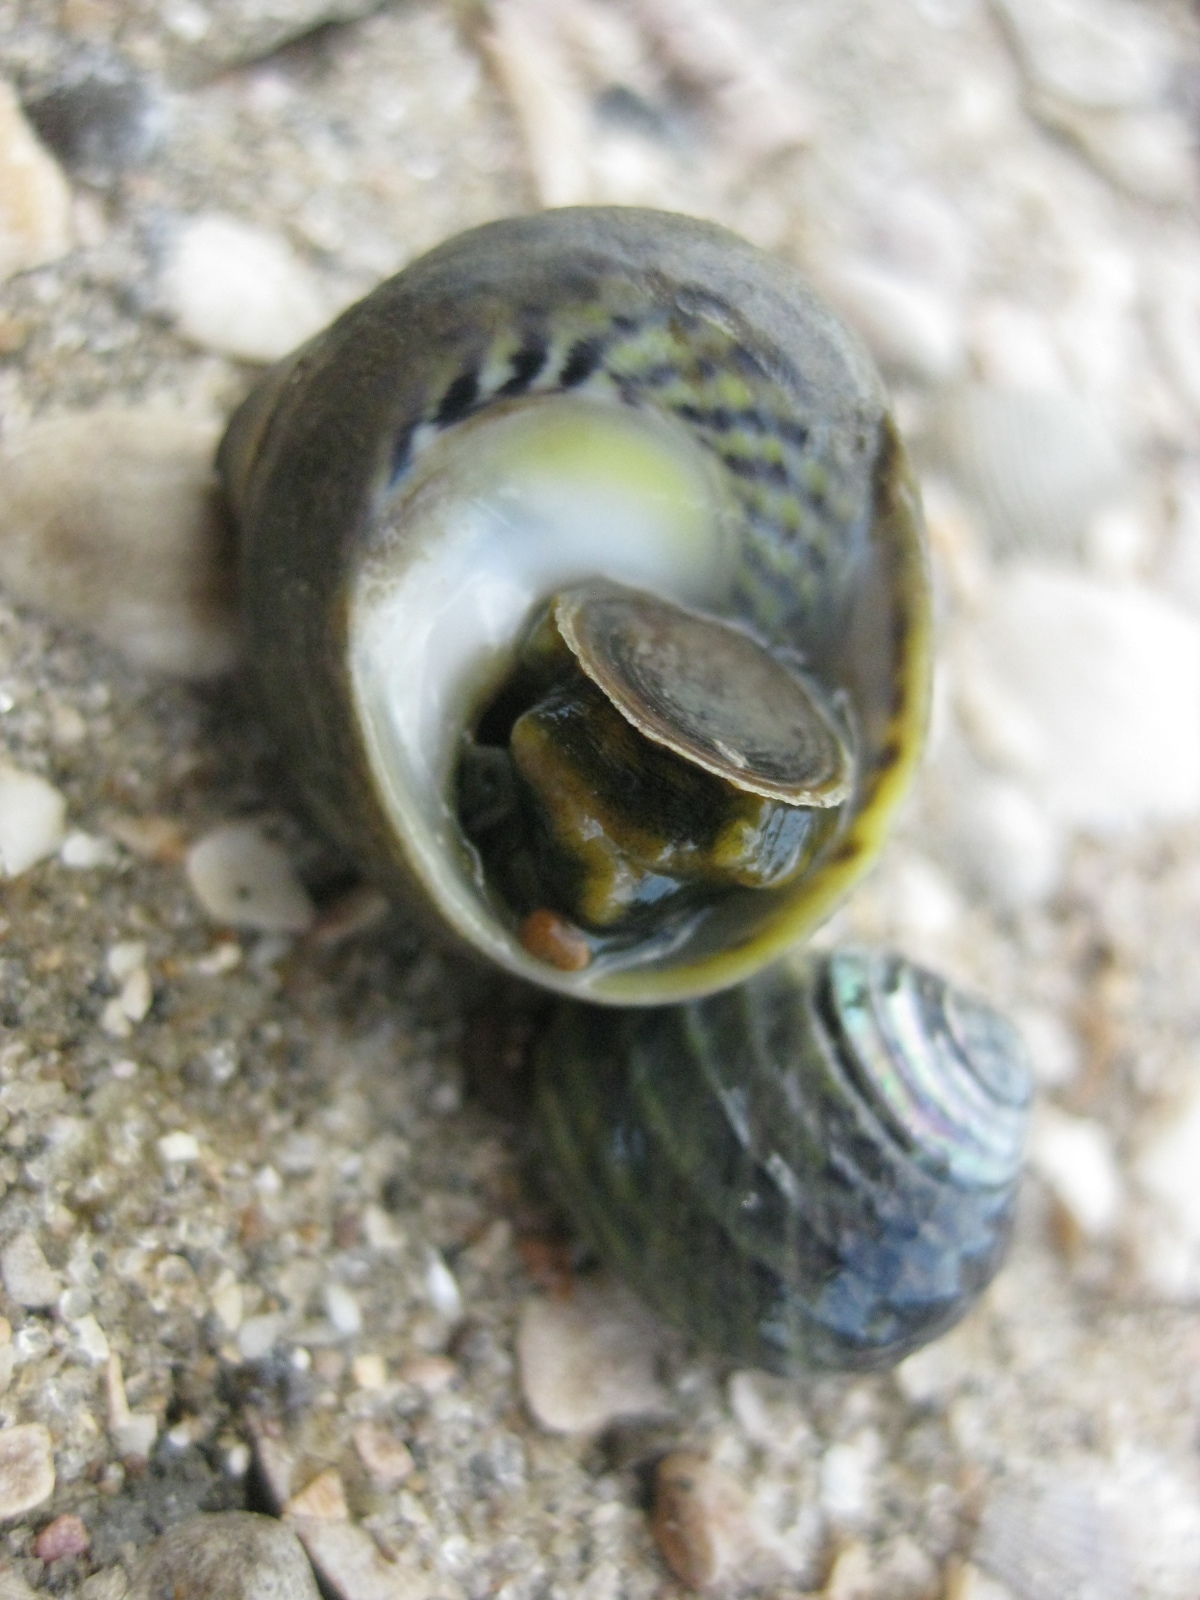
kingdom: Animalia
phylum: Mollusca
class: Gastropoda
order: Trochida
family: Trochidae
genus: Diloma
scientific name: Diloma subrostratum
